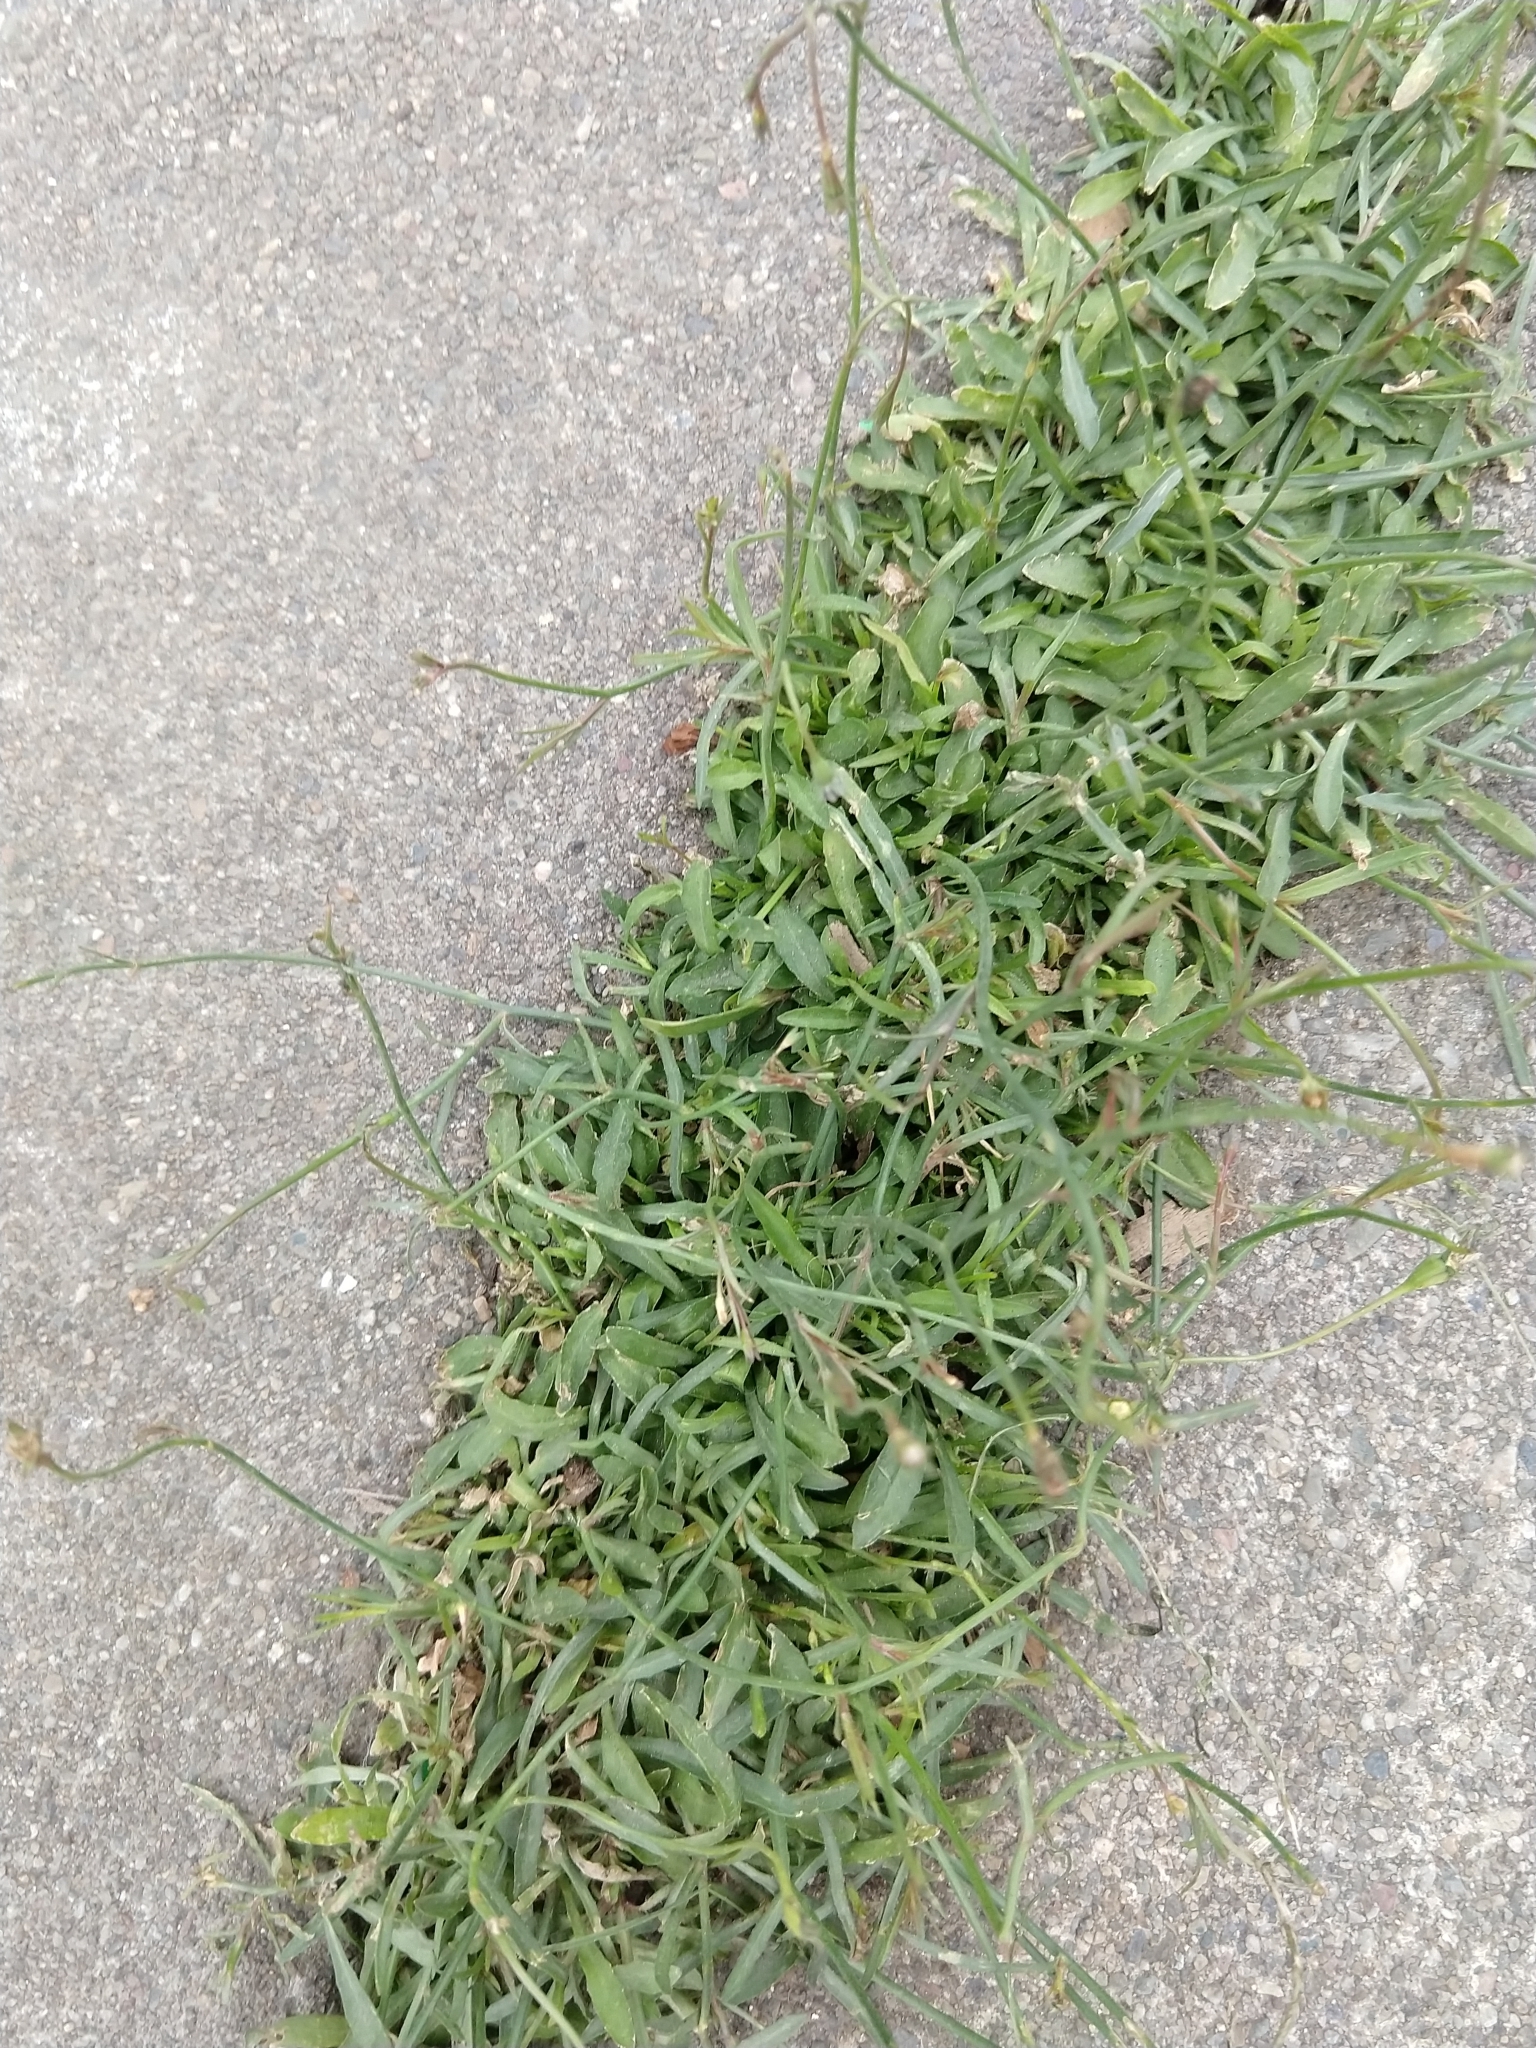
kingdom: Plantae
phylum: Tracheophyta
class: Magnoliopsida
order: Asterales
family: Campanulaceae
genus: Wahlenbergia
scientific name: Wahlenbergia marginata
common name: Southern rockbell
